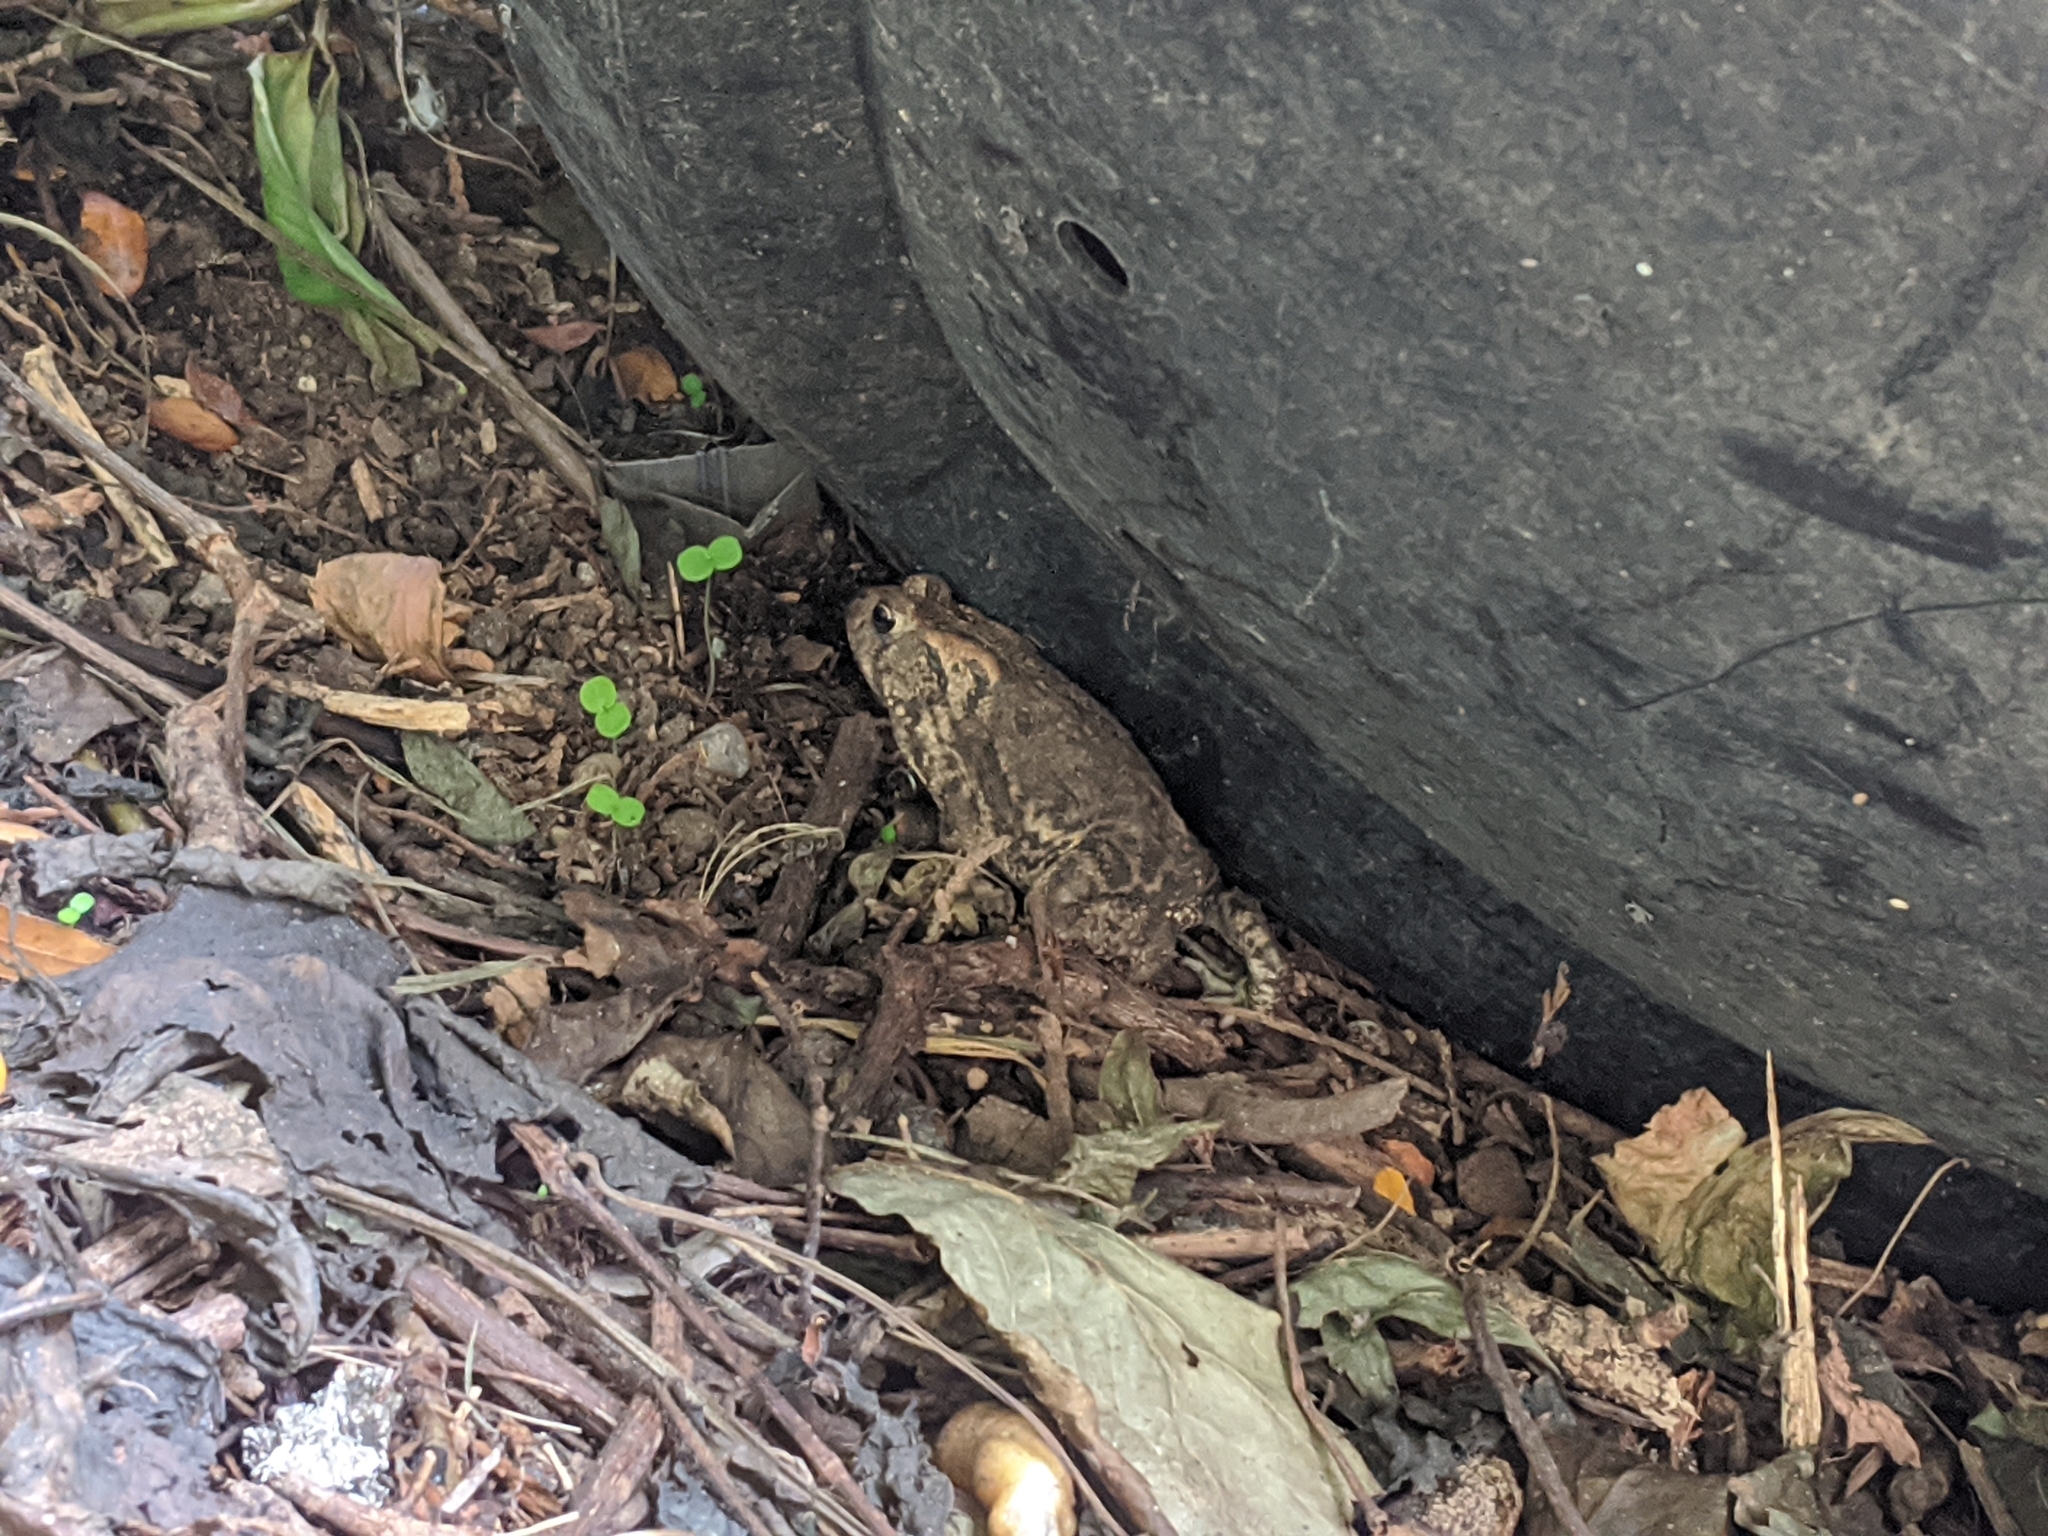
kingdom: Animalia
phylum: Chordata
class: Amphibia
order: Anura
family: Bufonidae
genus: Anaxyrus
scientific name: Anaxyrus americanus
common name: American toad
